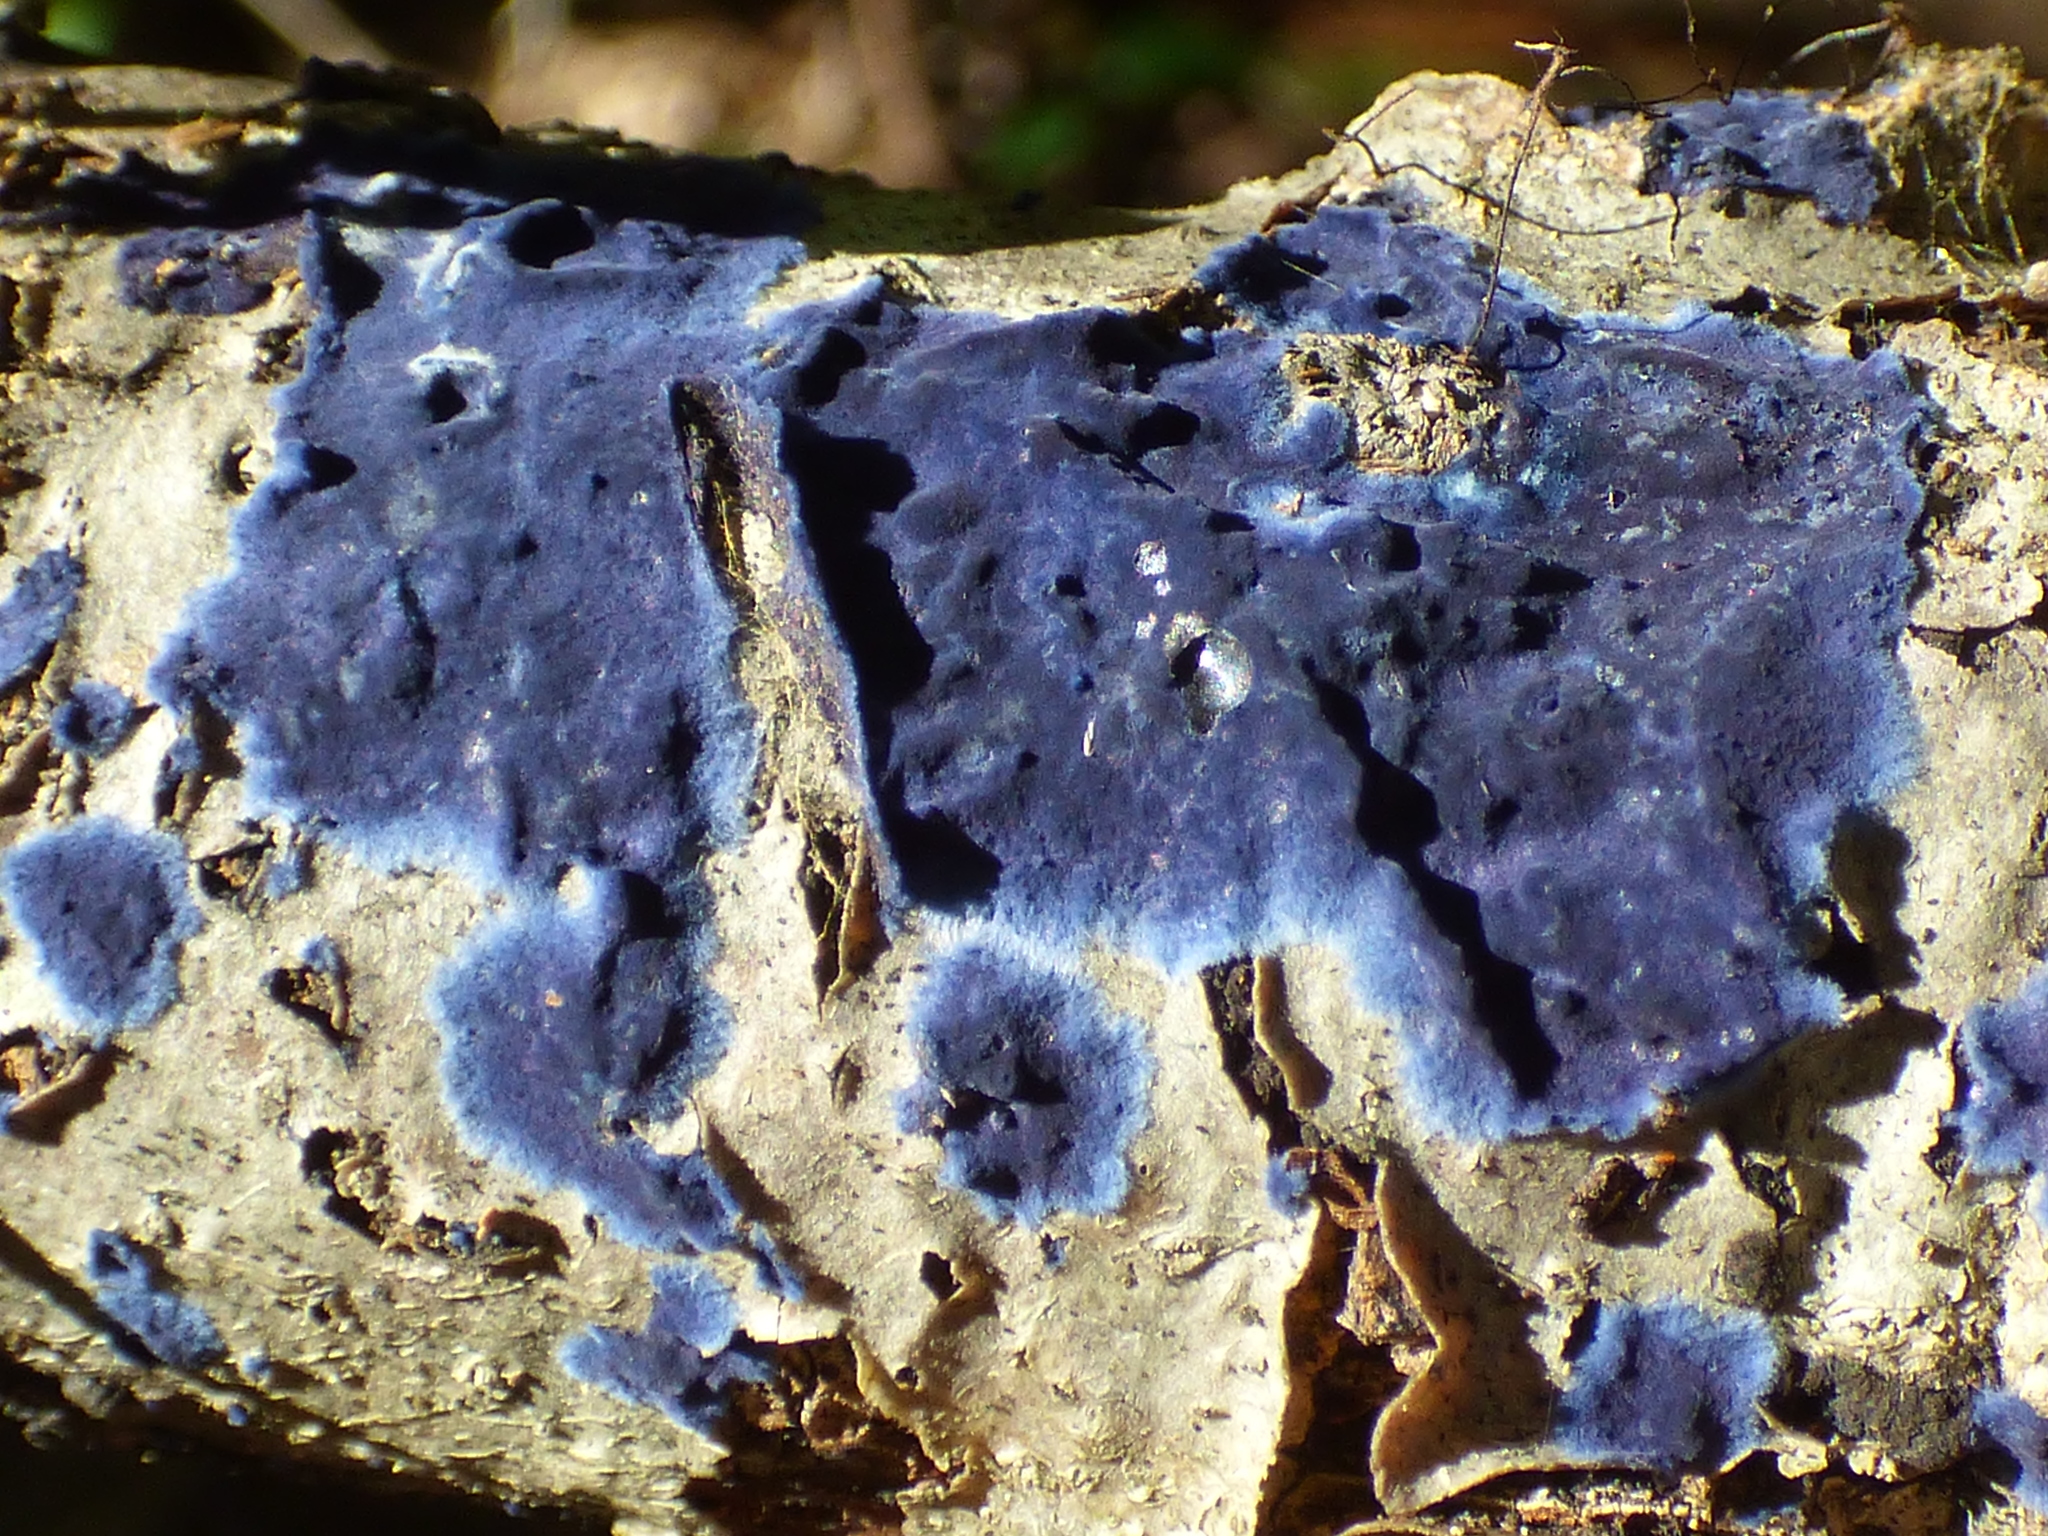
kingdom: Fungi
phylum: Basidiomycota
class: Agaricomycetes
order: Polyporales
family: Phanerochaetaceae
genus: Terana
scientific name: Terana coerulea
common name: Cobalt crust
